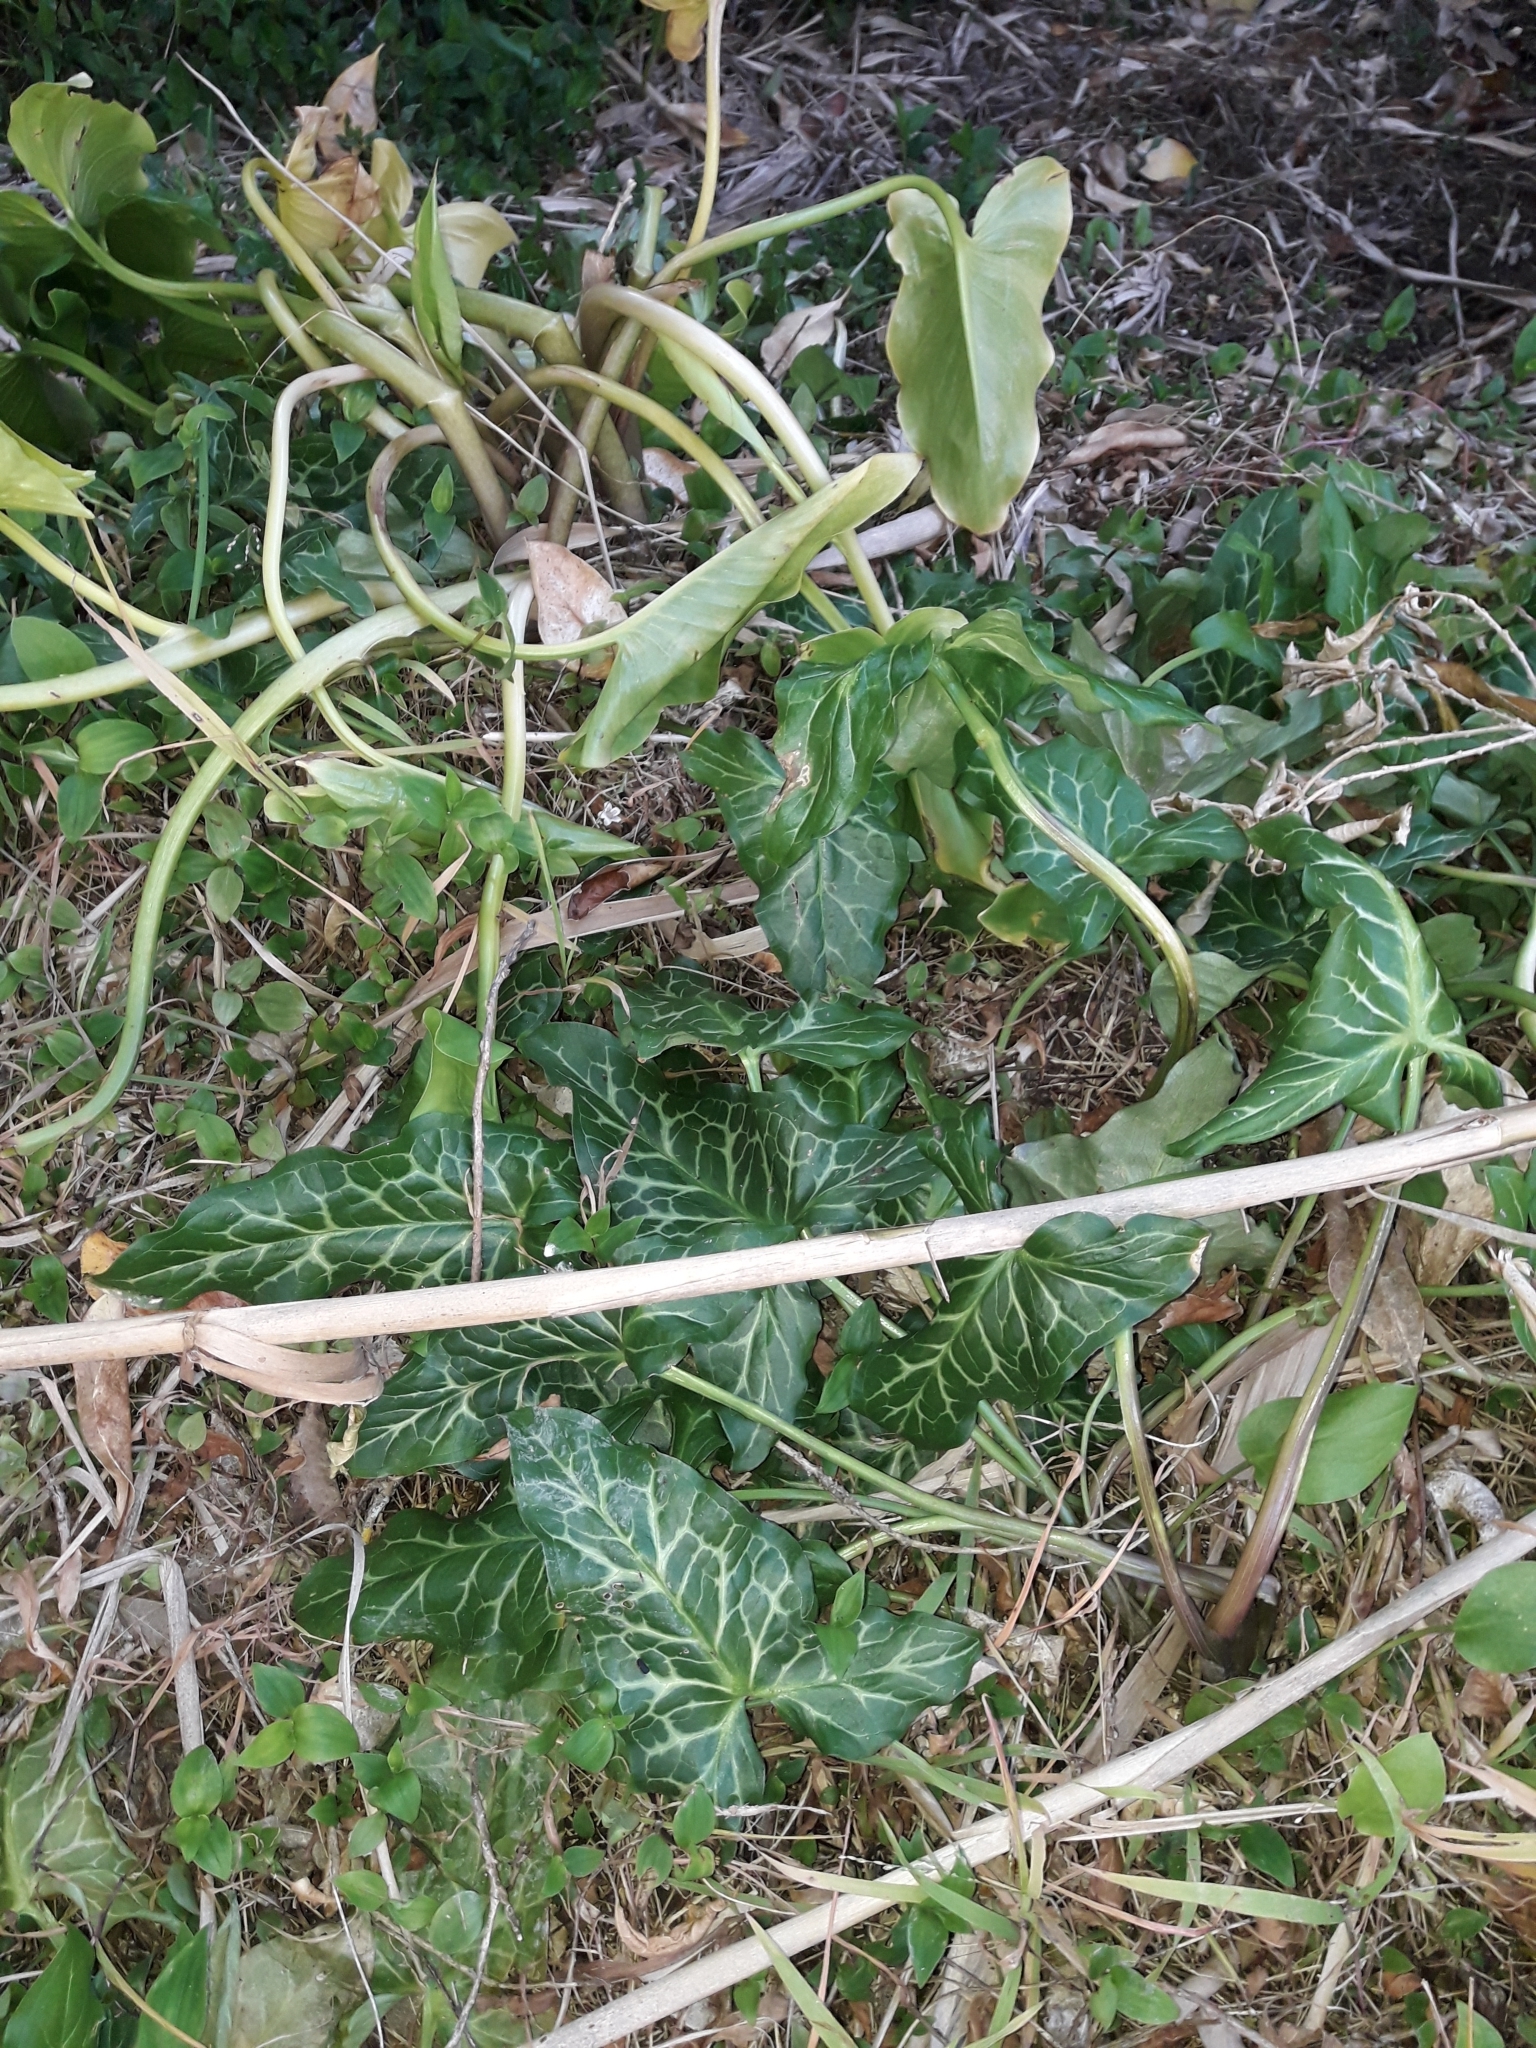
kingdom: Plantae
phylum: Tracheophyta
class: Liliopsida
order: Alismatales
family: Araceae
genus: Arum
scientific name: Arum italicum
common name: Italian lords-and-ladies
